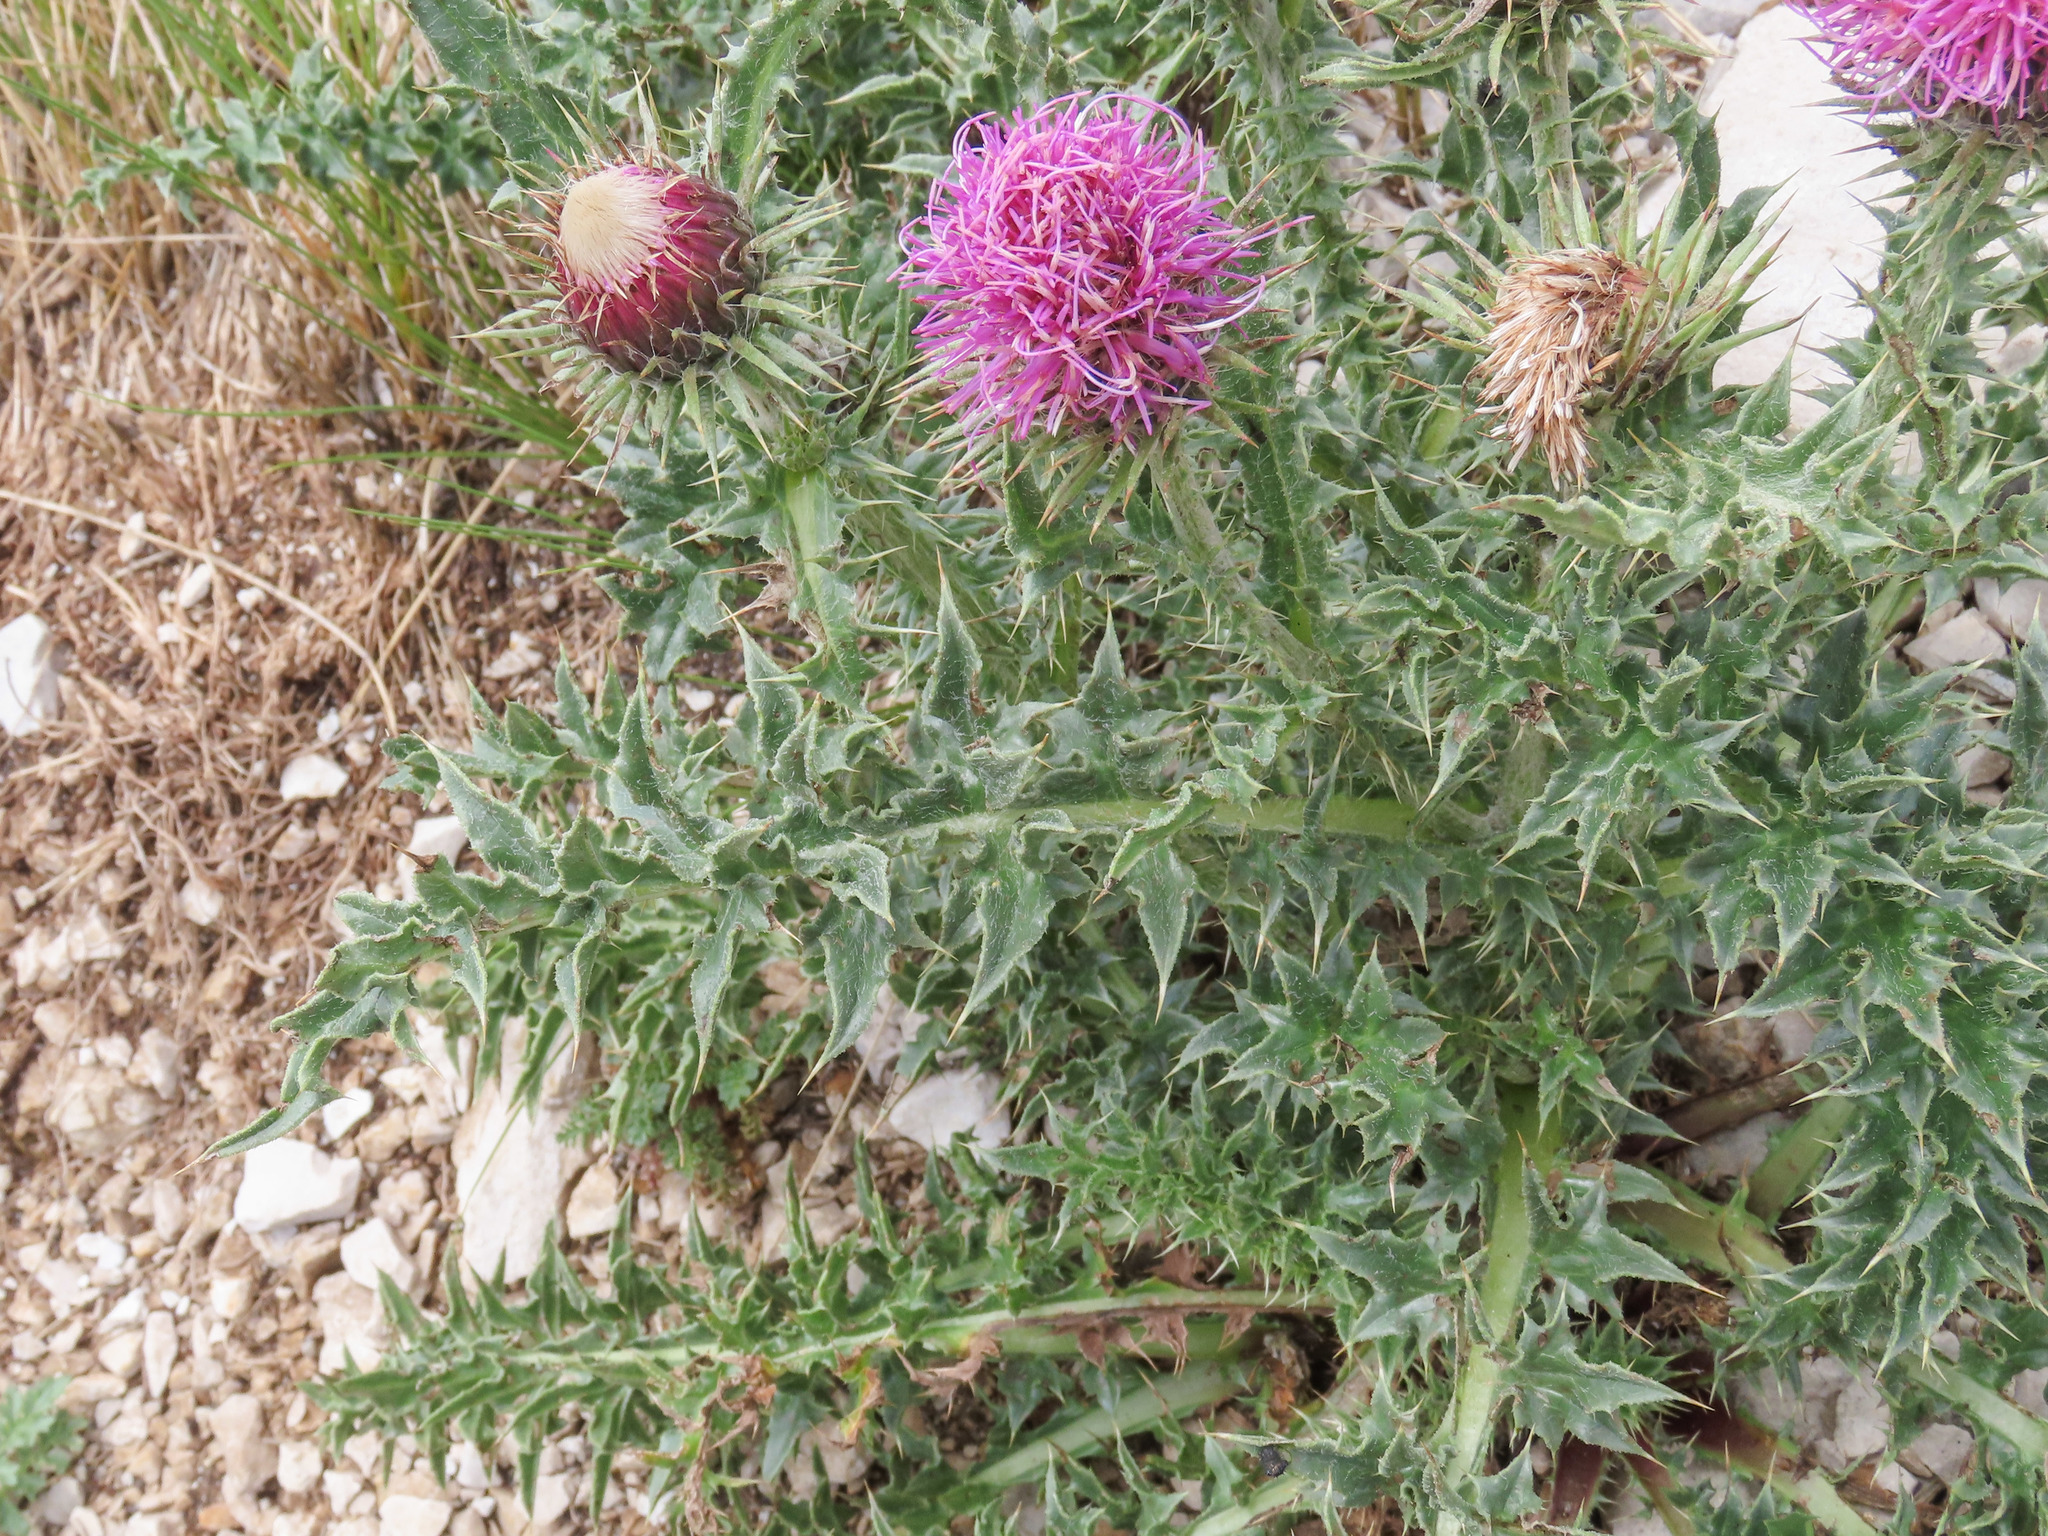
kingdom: Plantae
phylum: Tracheophyta
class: Magnoliopsida
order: Asterales
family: Asteraceae
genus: Carduus
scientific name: Carduus chrysacanthus
